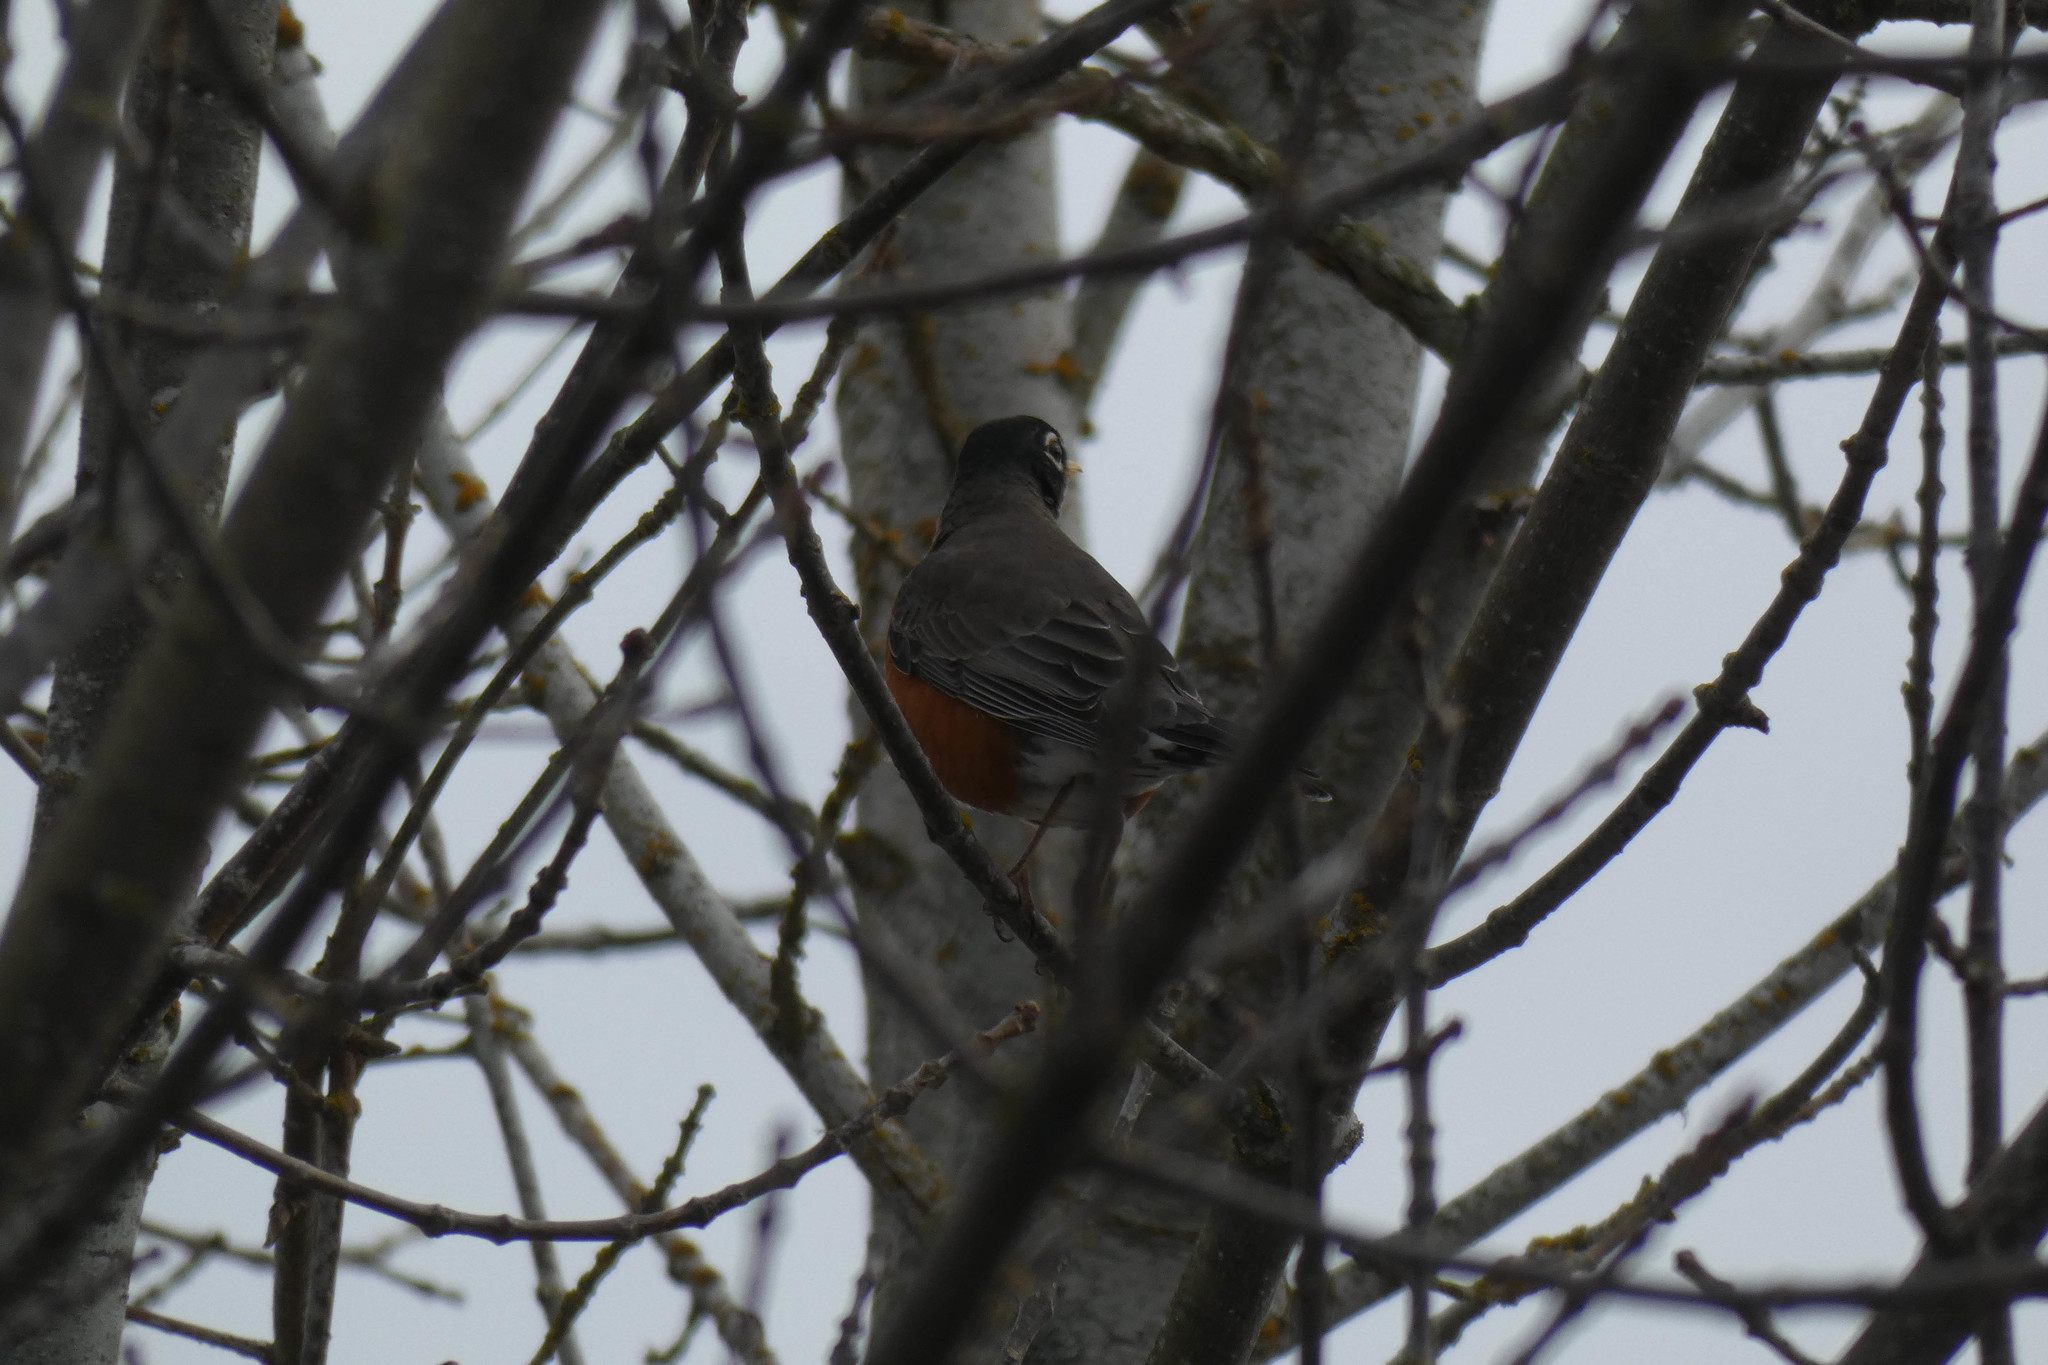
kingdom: Animalia
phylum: Chordata
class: Aves
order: Passeriformes
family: Turdidae
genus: Turdus
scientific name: Turdus migratorius
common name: American robin
